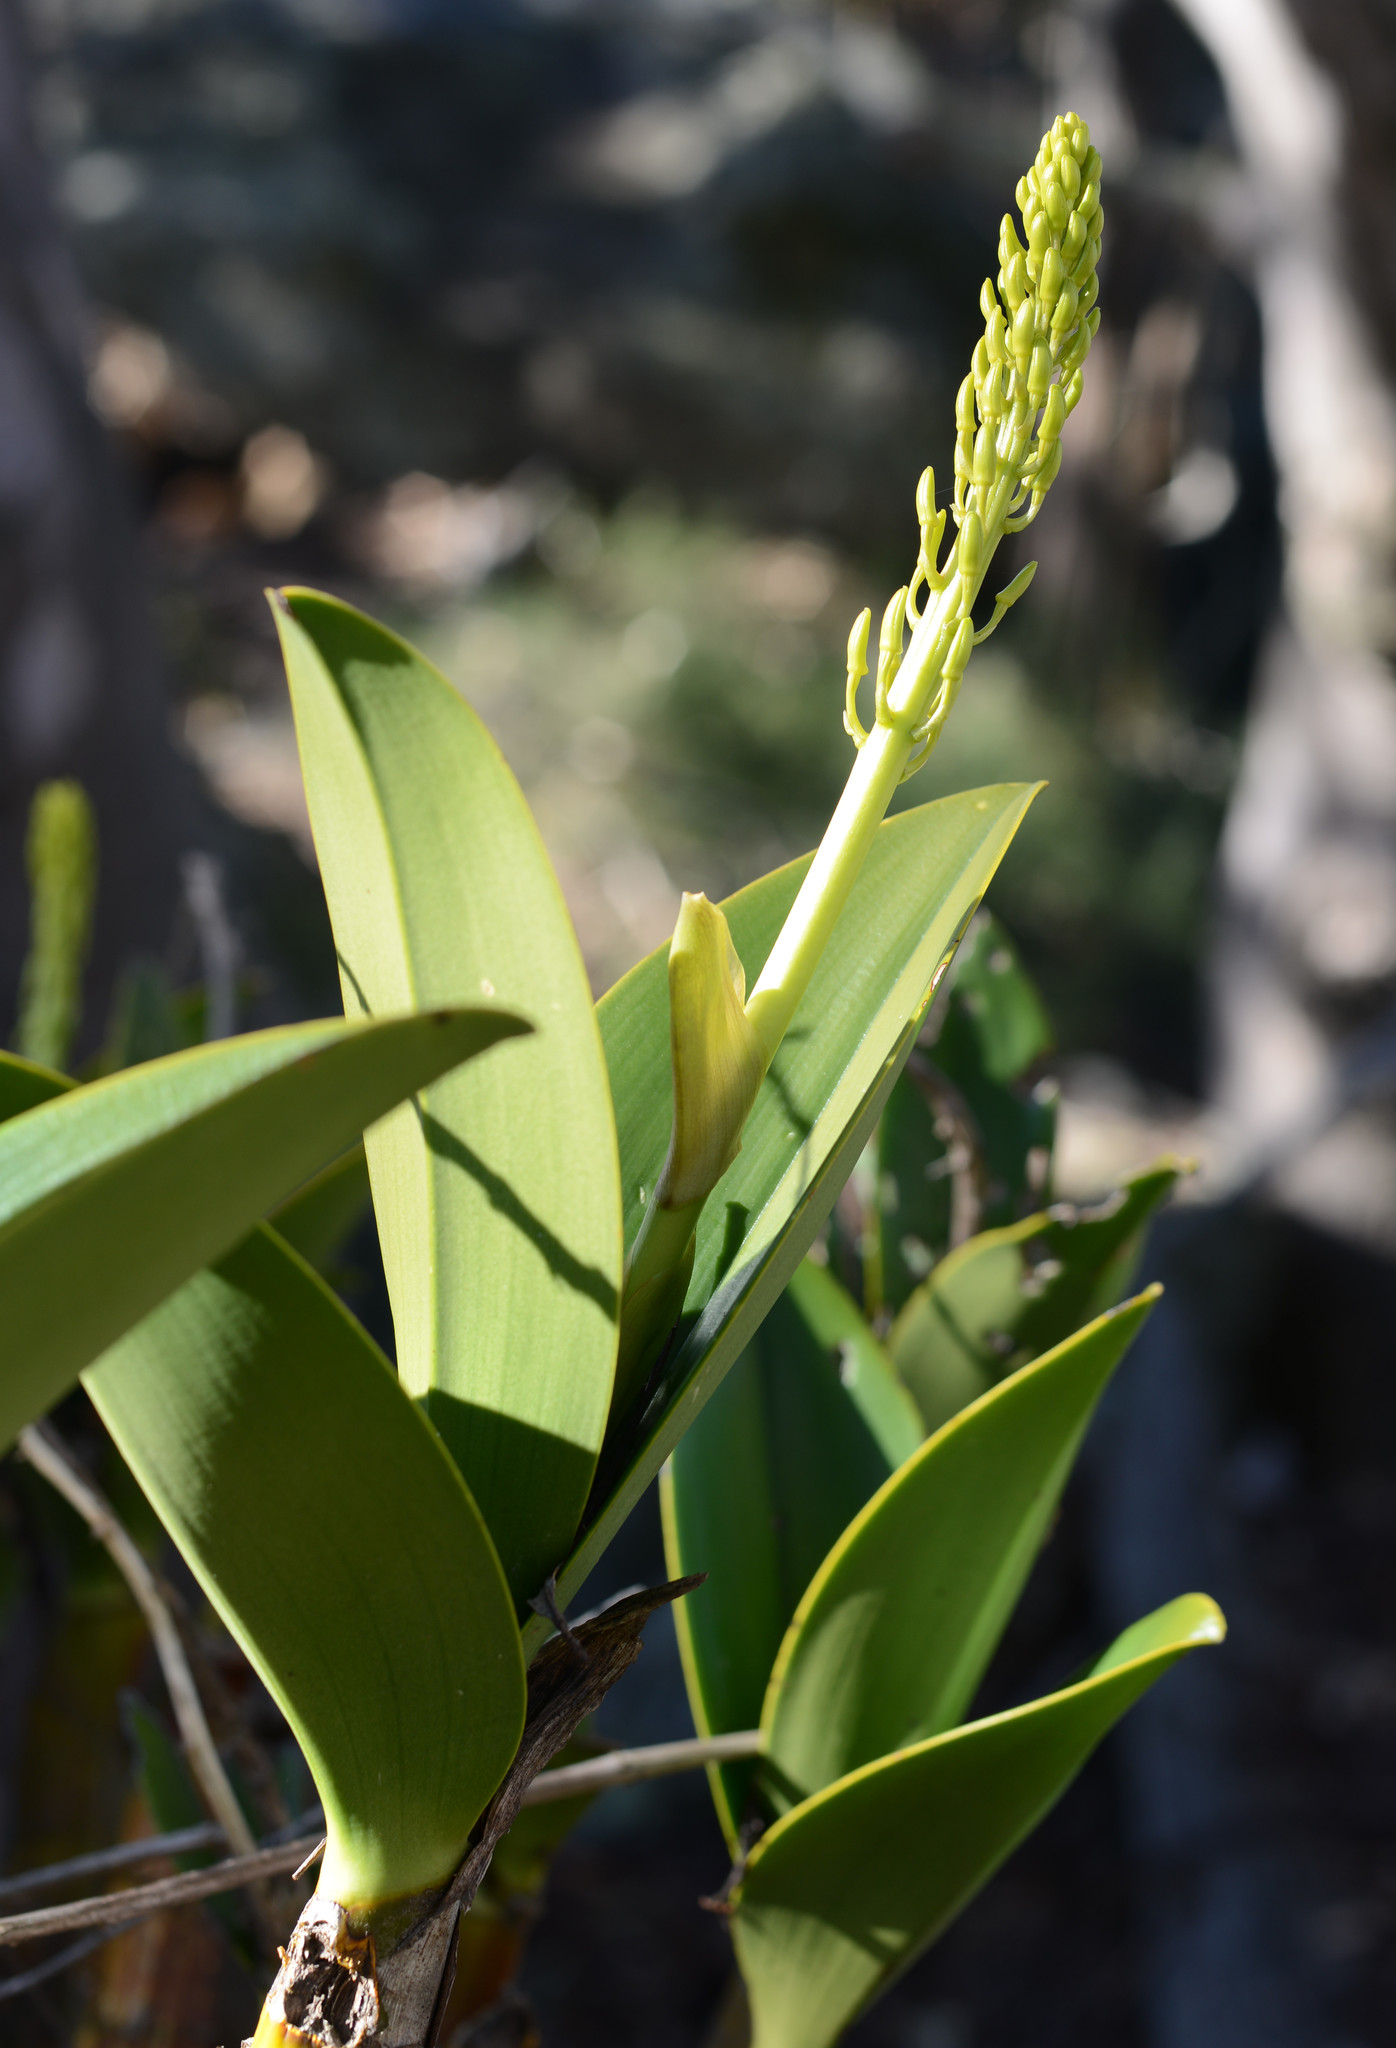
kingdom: Plantae
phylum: Tracheophyta
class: Liliopsida
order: Asparagales
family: Orchidaceae
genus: Dendrobium
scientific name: Dendrobium speciosum
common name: Rock-lily
